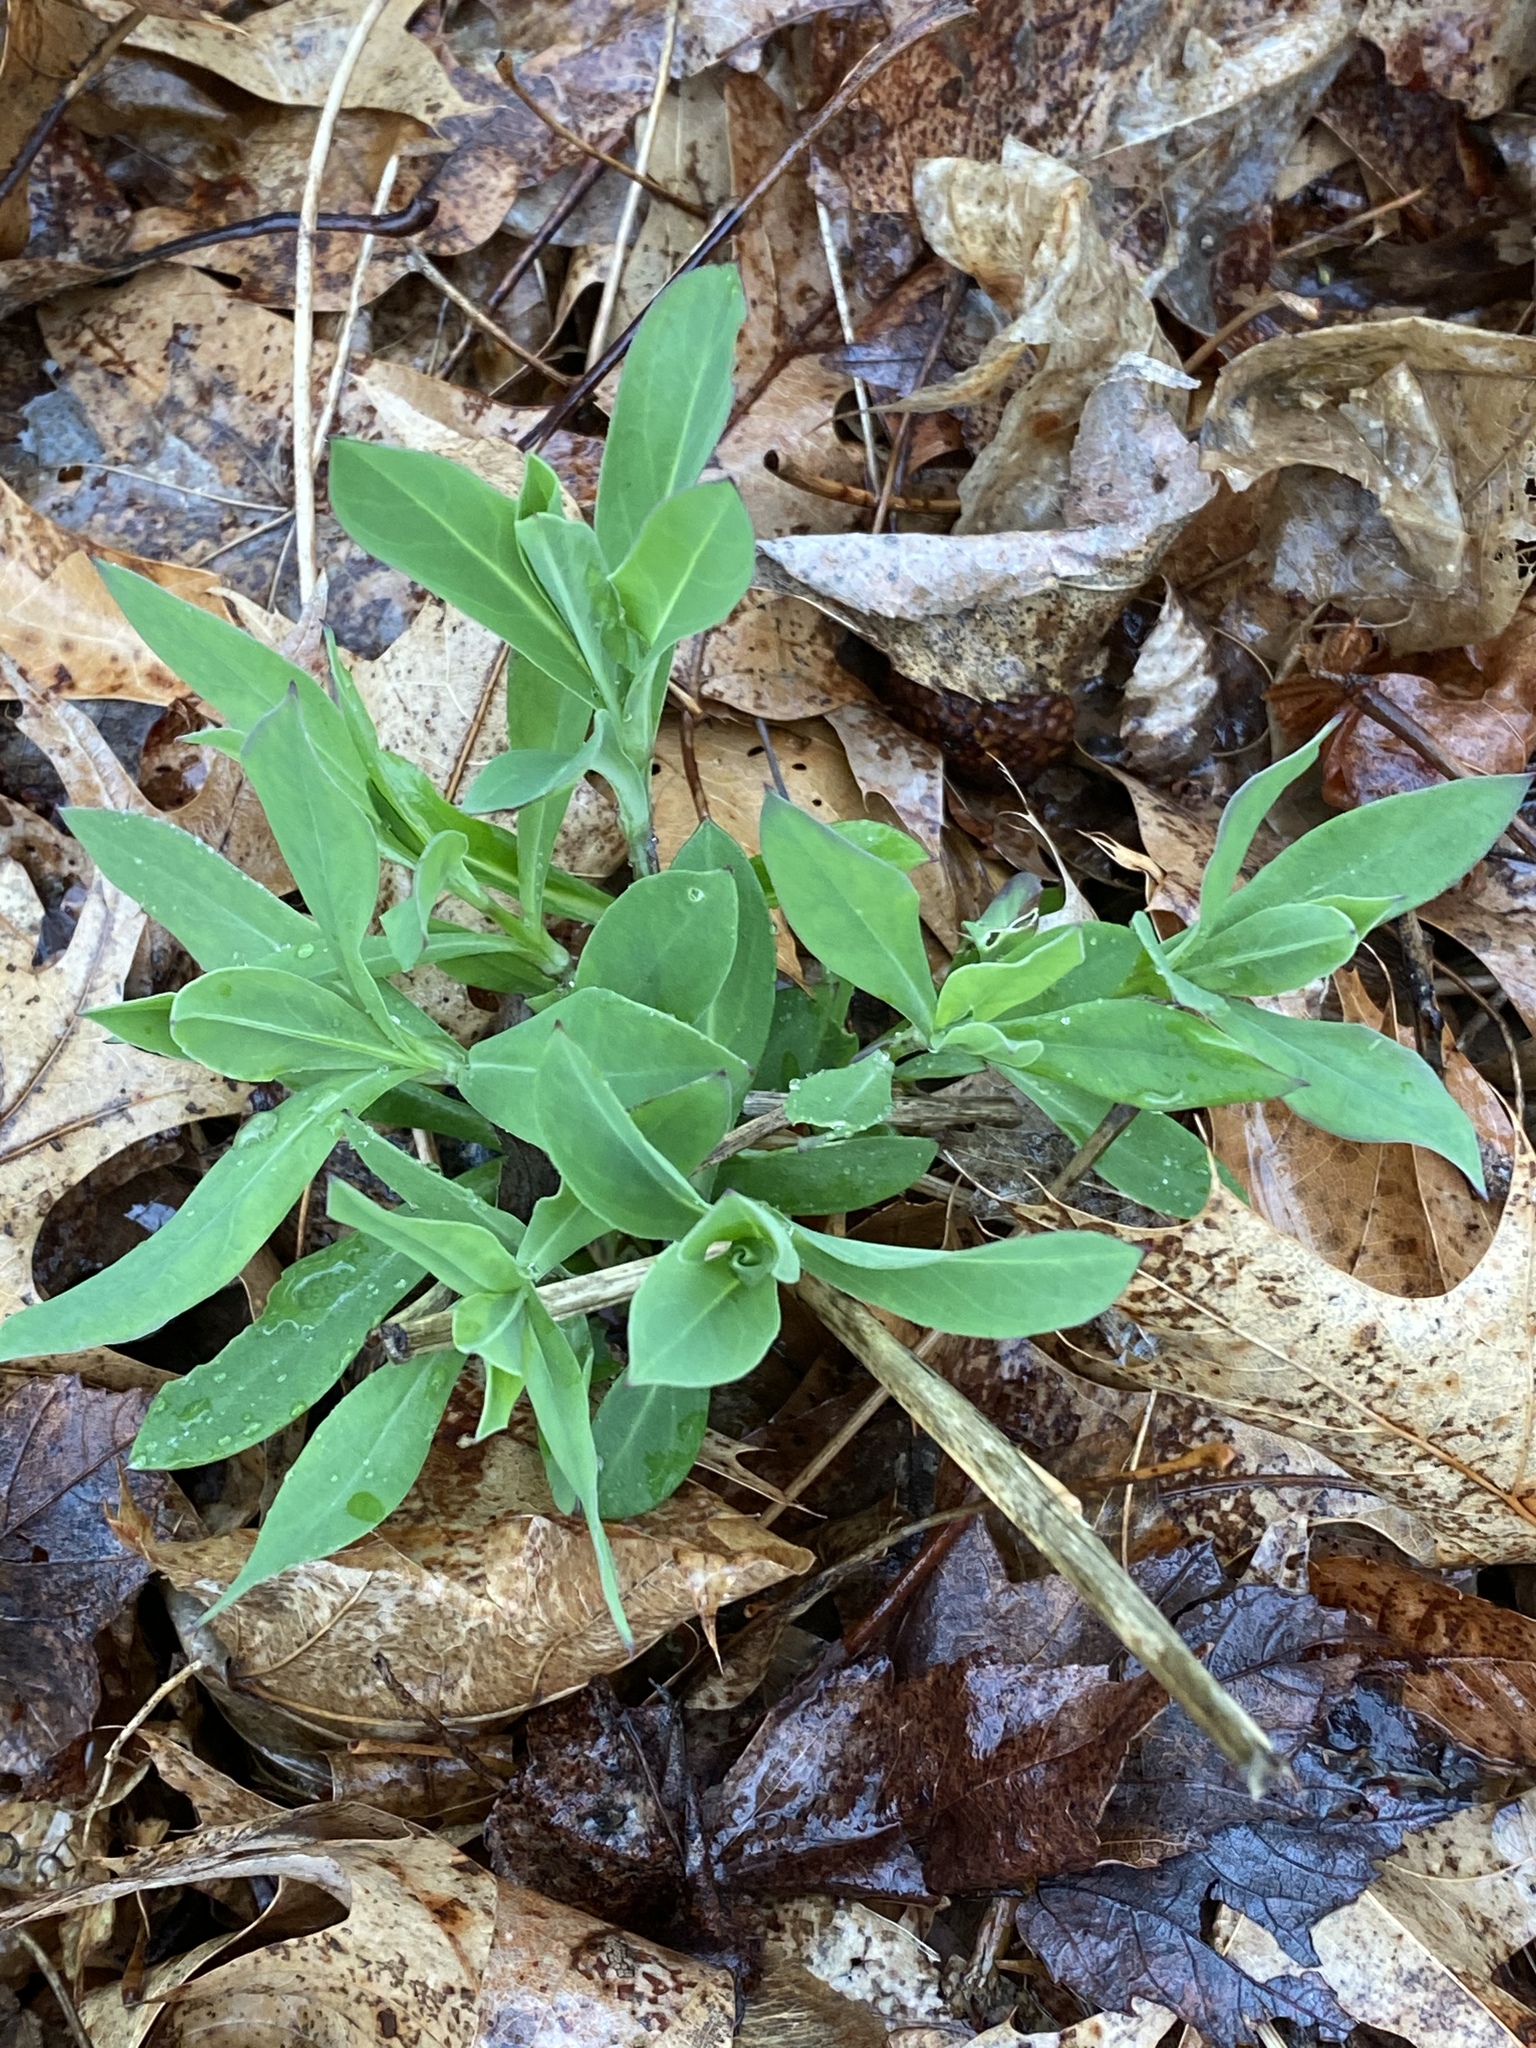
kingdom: Plantae
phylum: Tracheophyta
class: Magnoliopsida
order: Caryophyllales
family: Caryophyllaceae
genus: Silene
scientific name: Silene vulgaris
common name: Bladder campion
